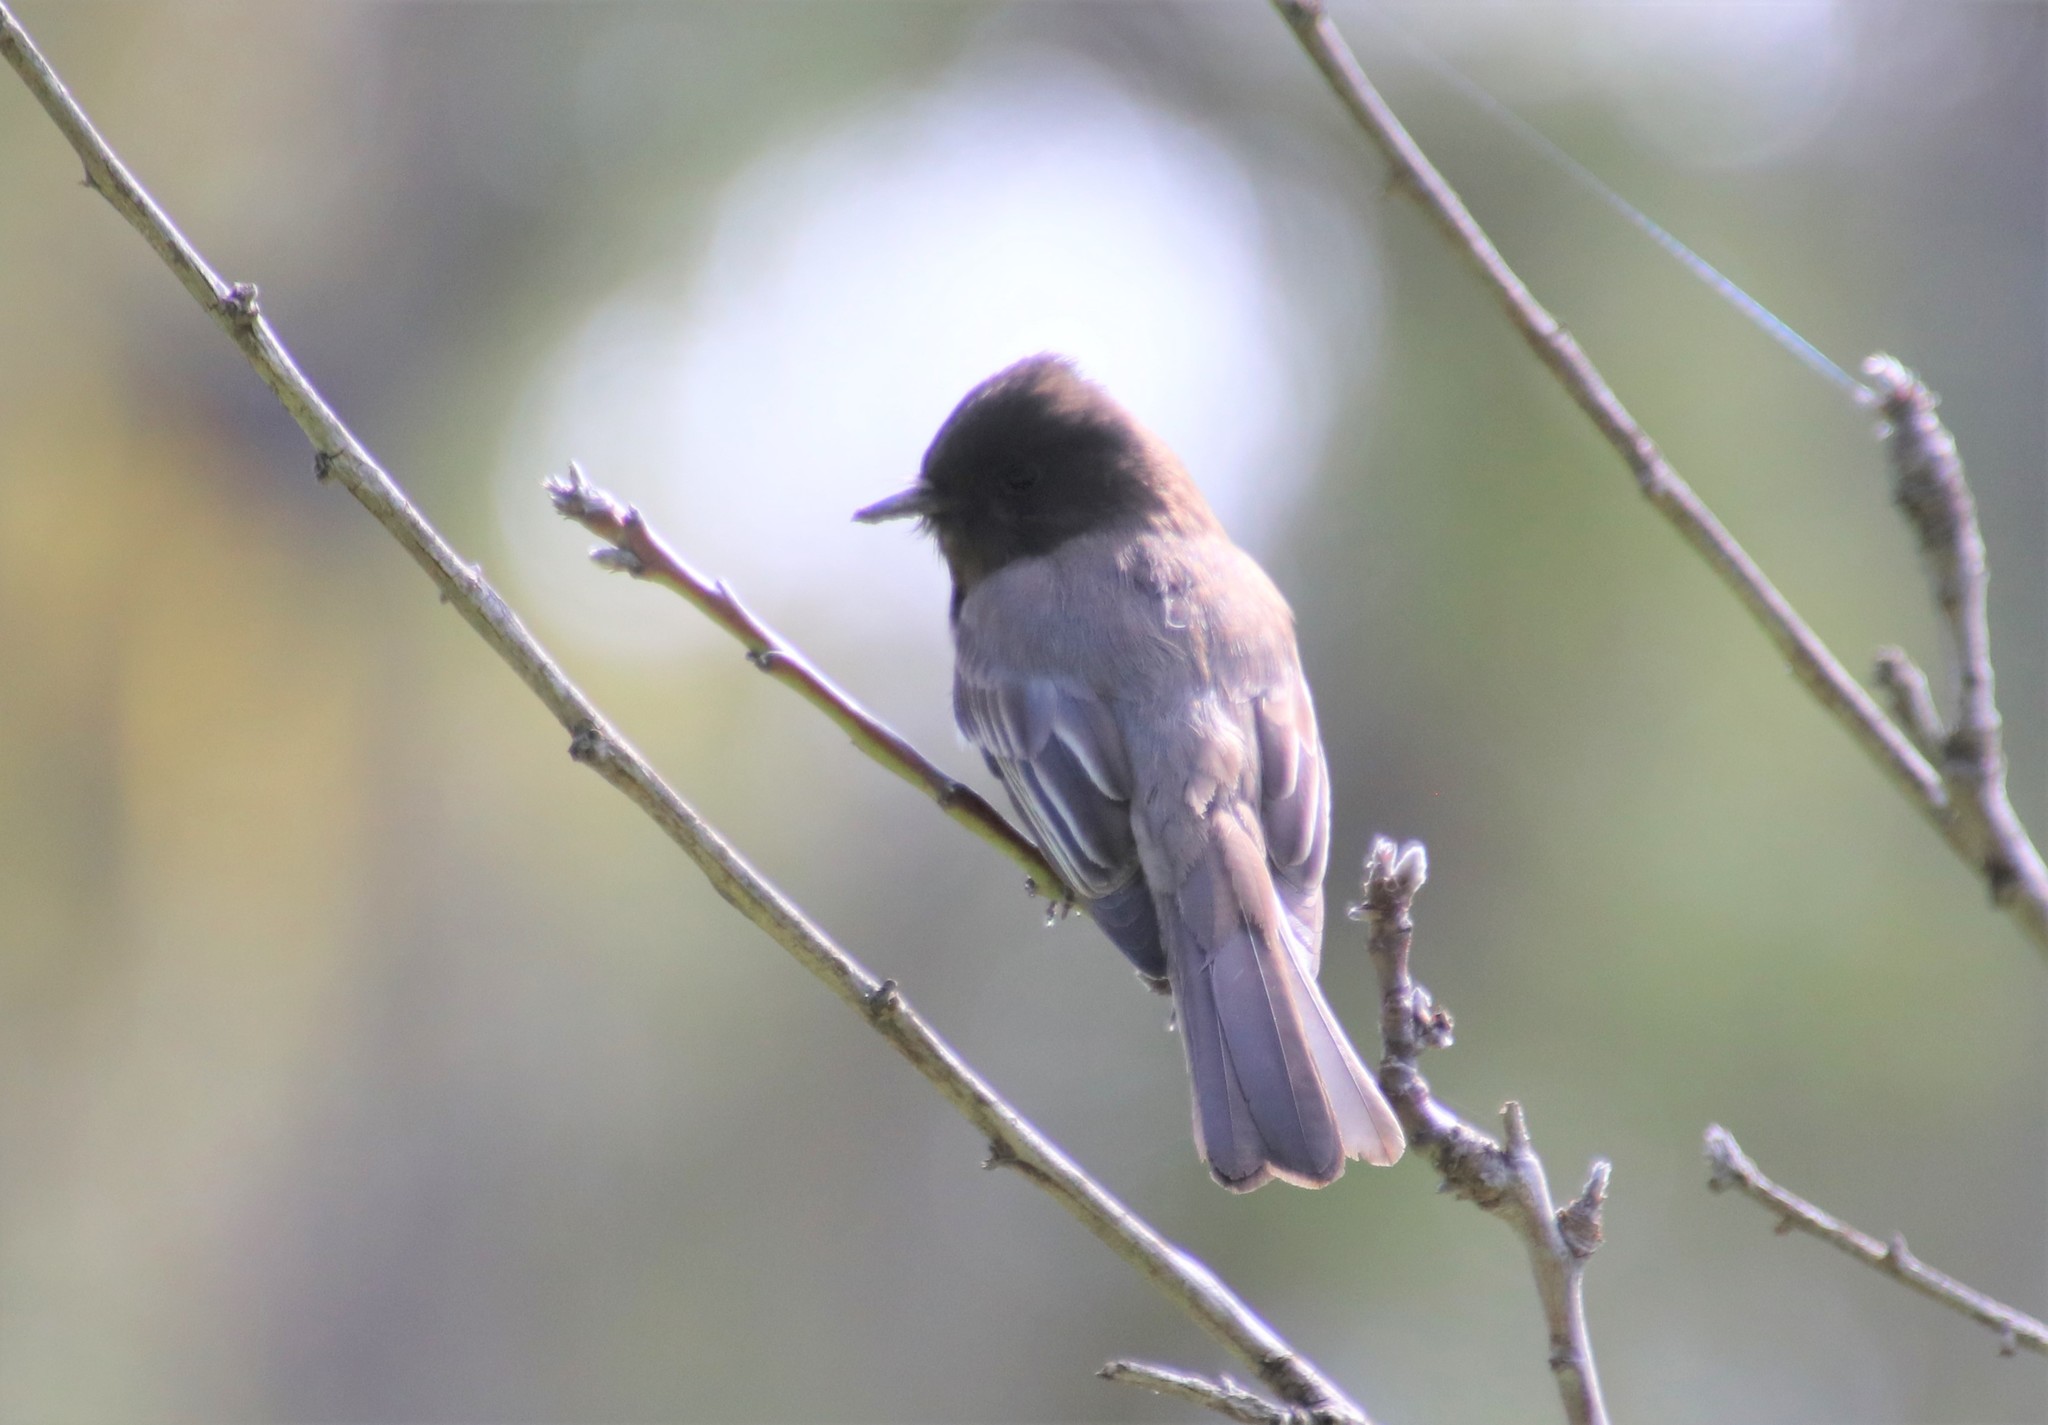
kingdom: Animalia
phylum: Chordata
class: Aves
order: Passeriformes
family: Tyrannidae
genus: Sayornis
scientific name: Sayornis nigricans
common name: Black phoebe
